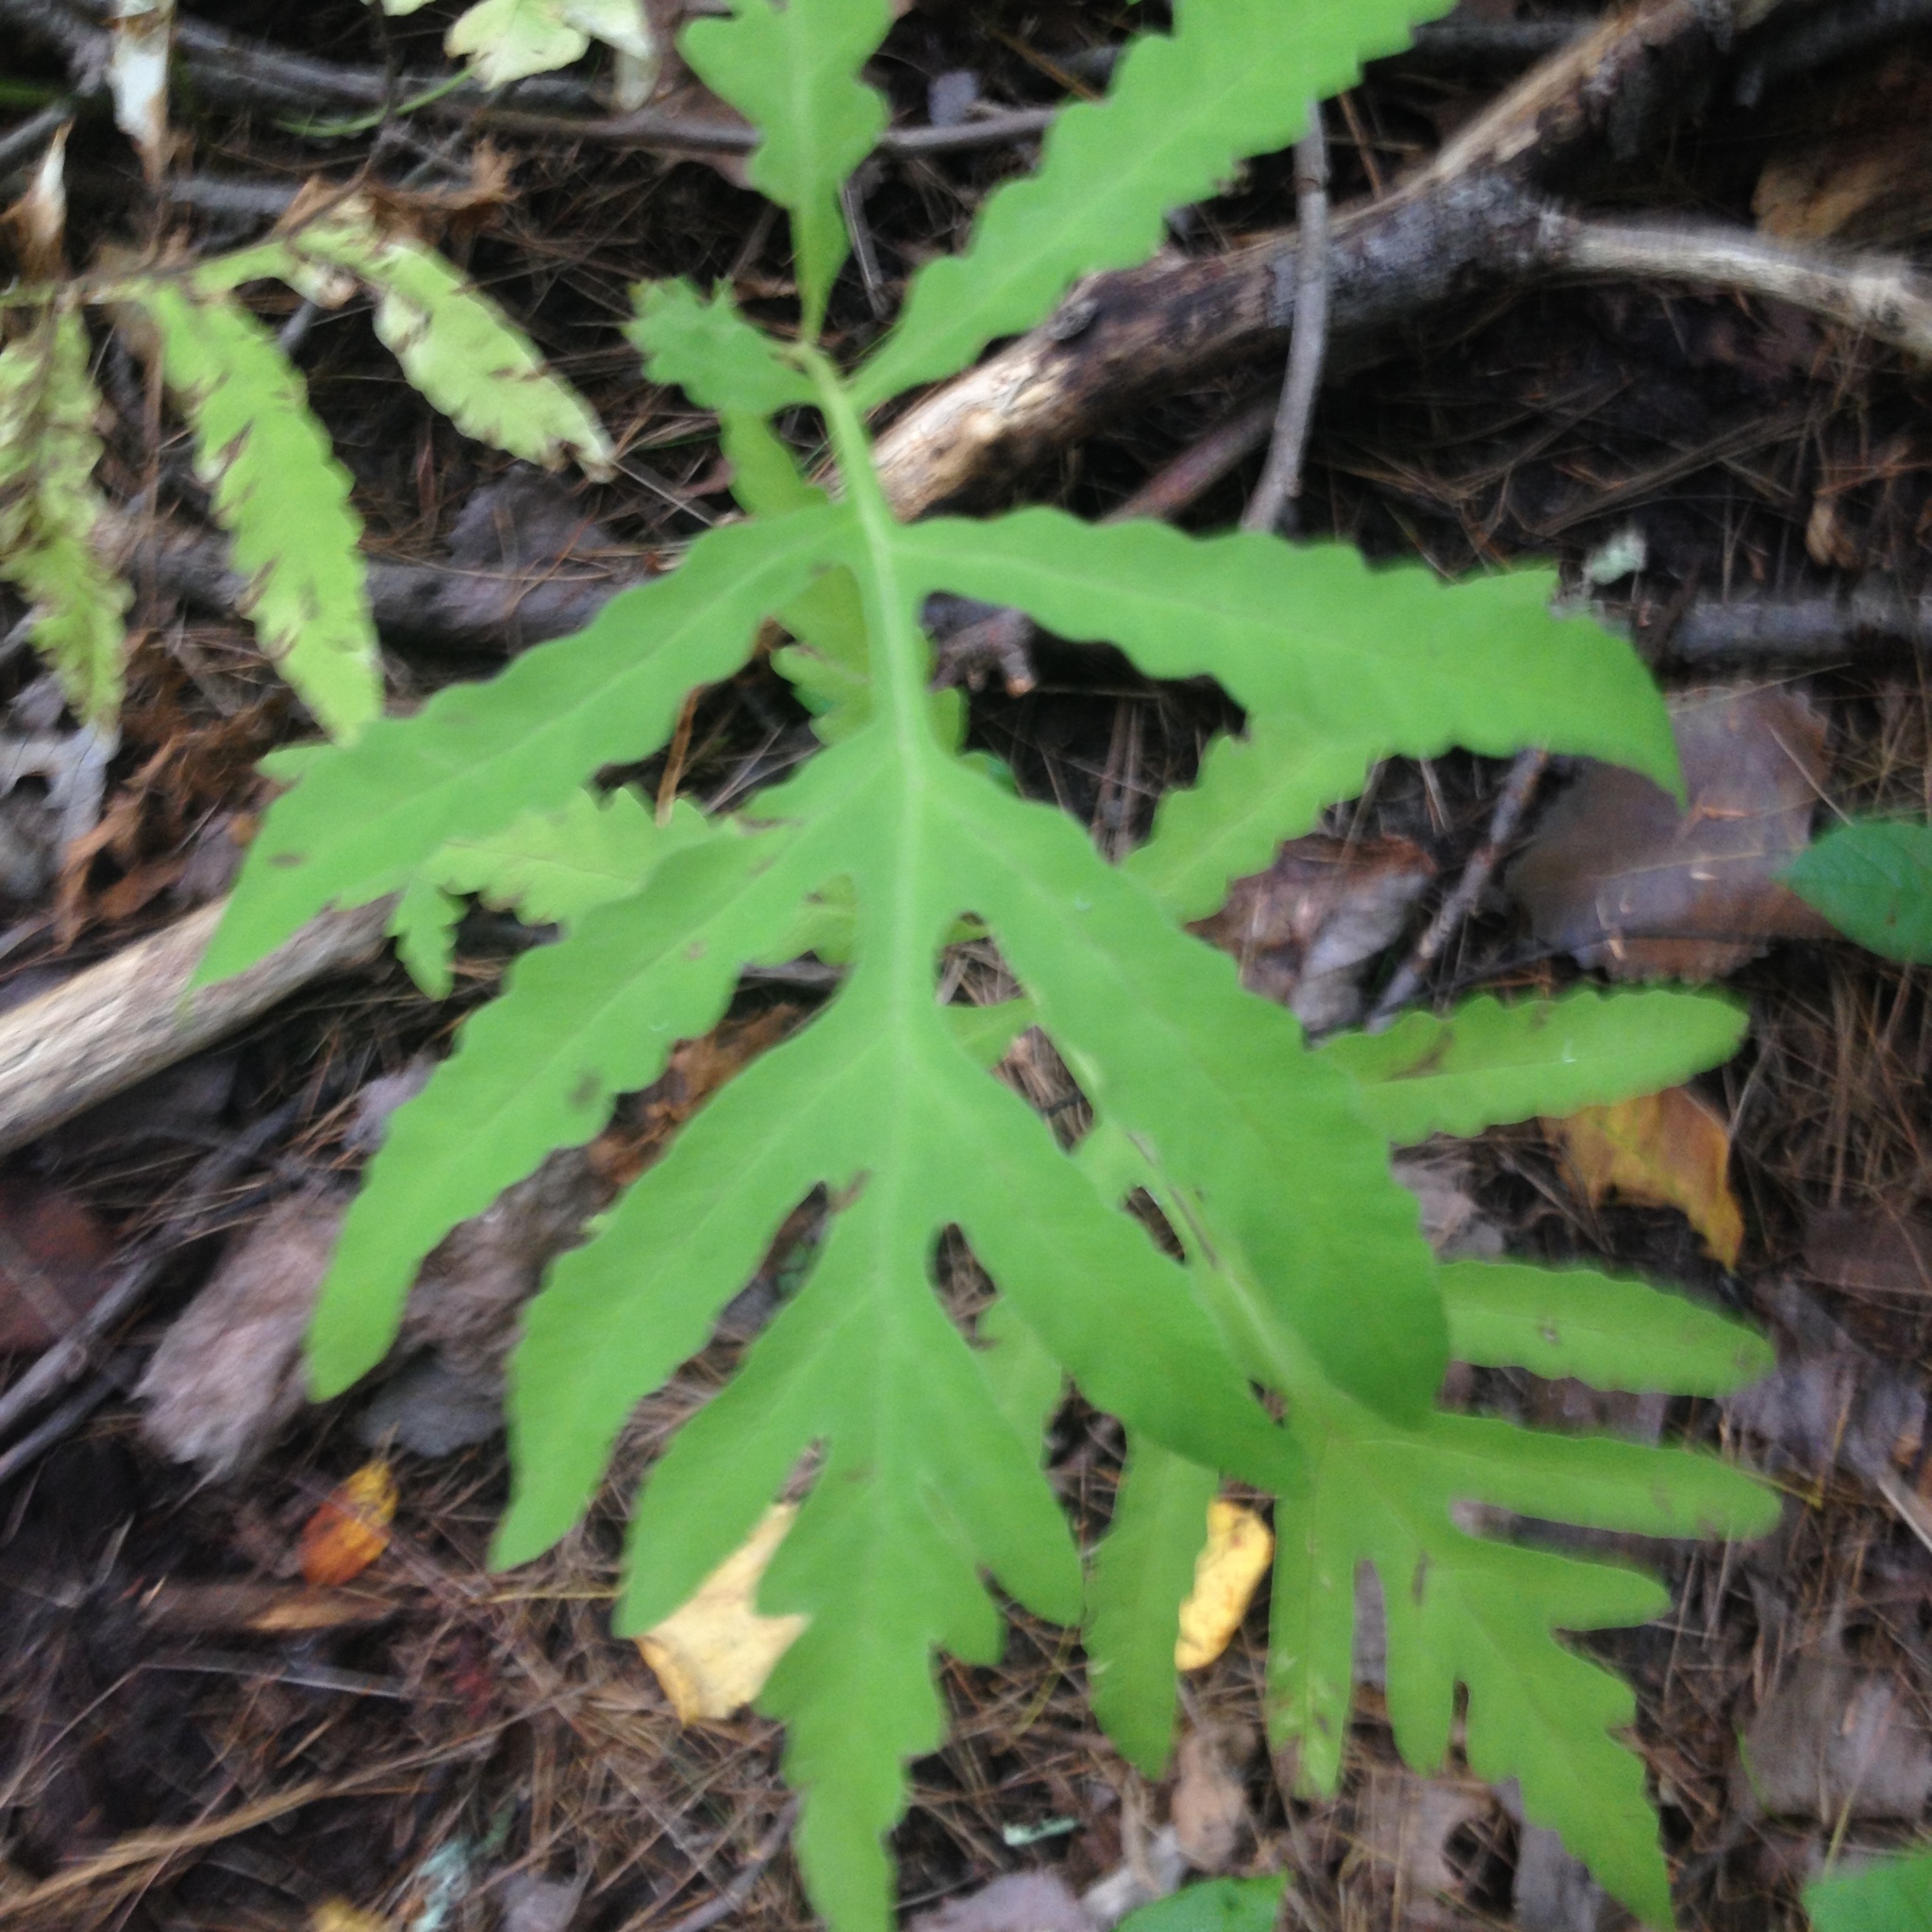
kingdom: Plantae
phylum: Tracheophyta
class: Polypodiopsida
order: Polypodiales
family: Onocleaceae
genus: Onoclea
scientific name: Onoclea sensibilis
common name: Sensitive fern
